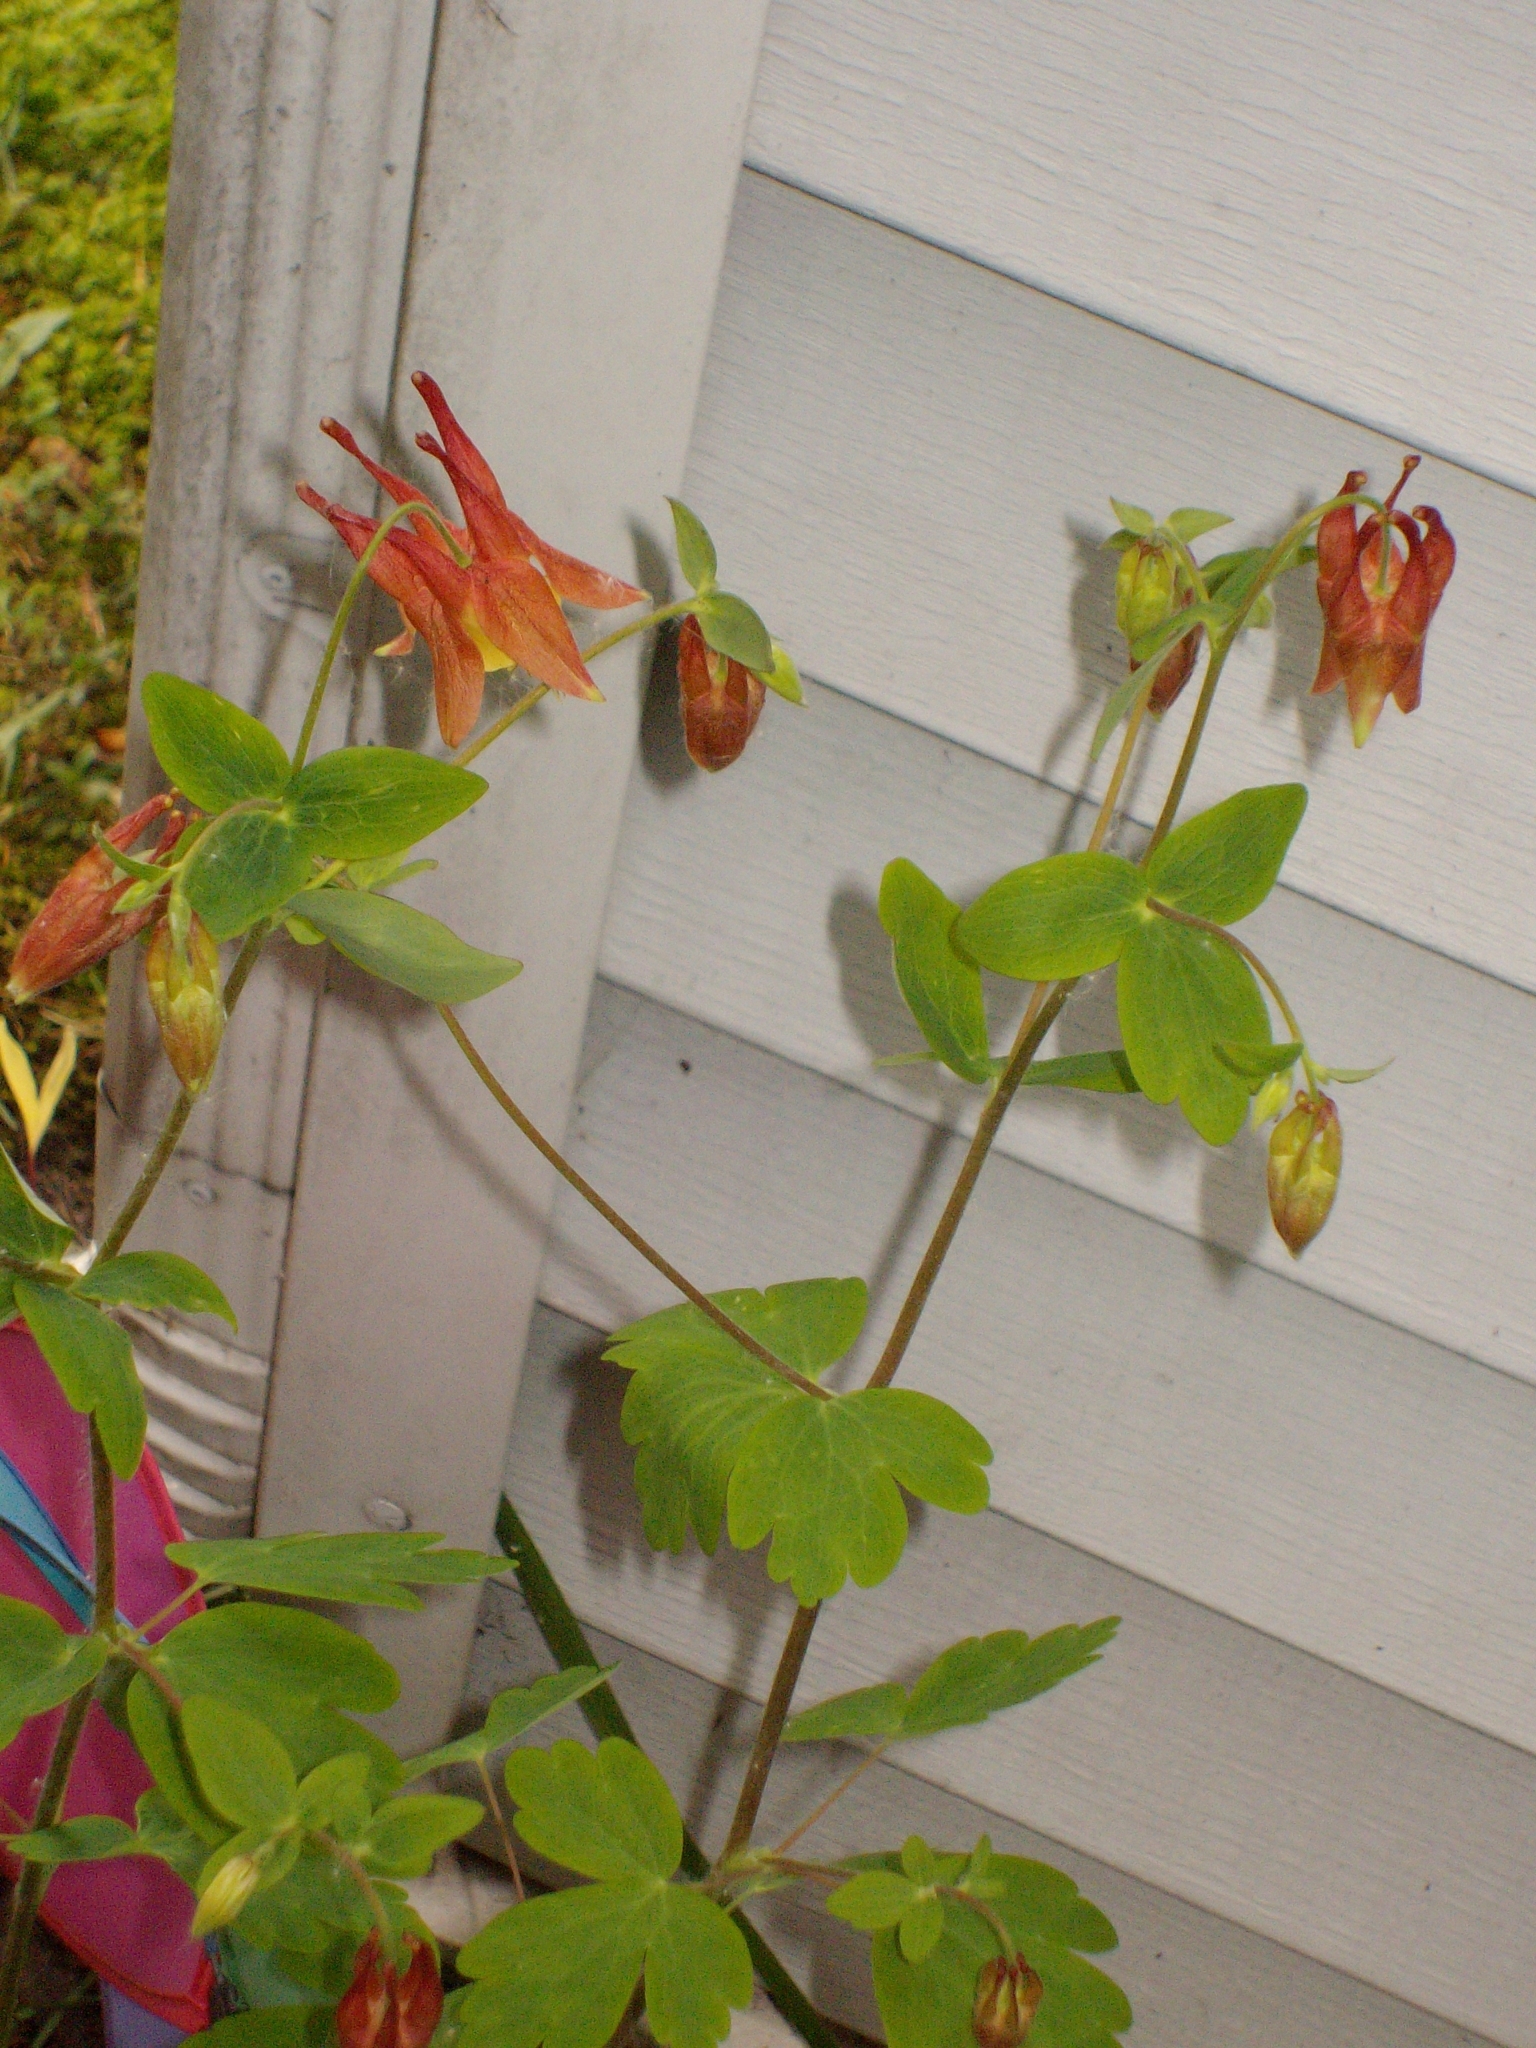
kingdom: Plantae
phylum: Tracheophyta
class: Magnoliopsida
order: Ranunculales
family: Ranunculaceae
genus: Aquilegia
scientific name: Aquilegia canadensis
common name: American columbine
